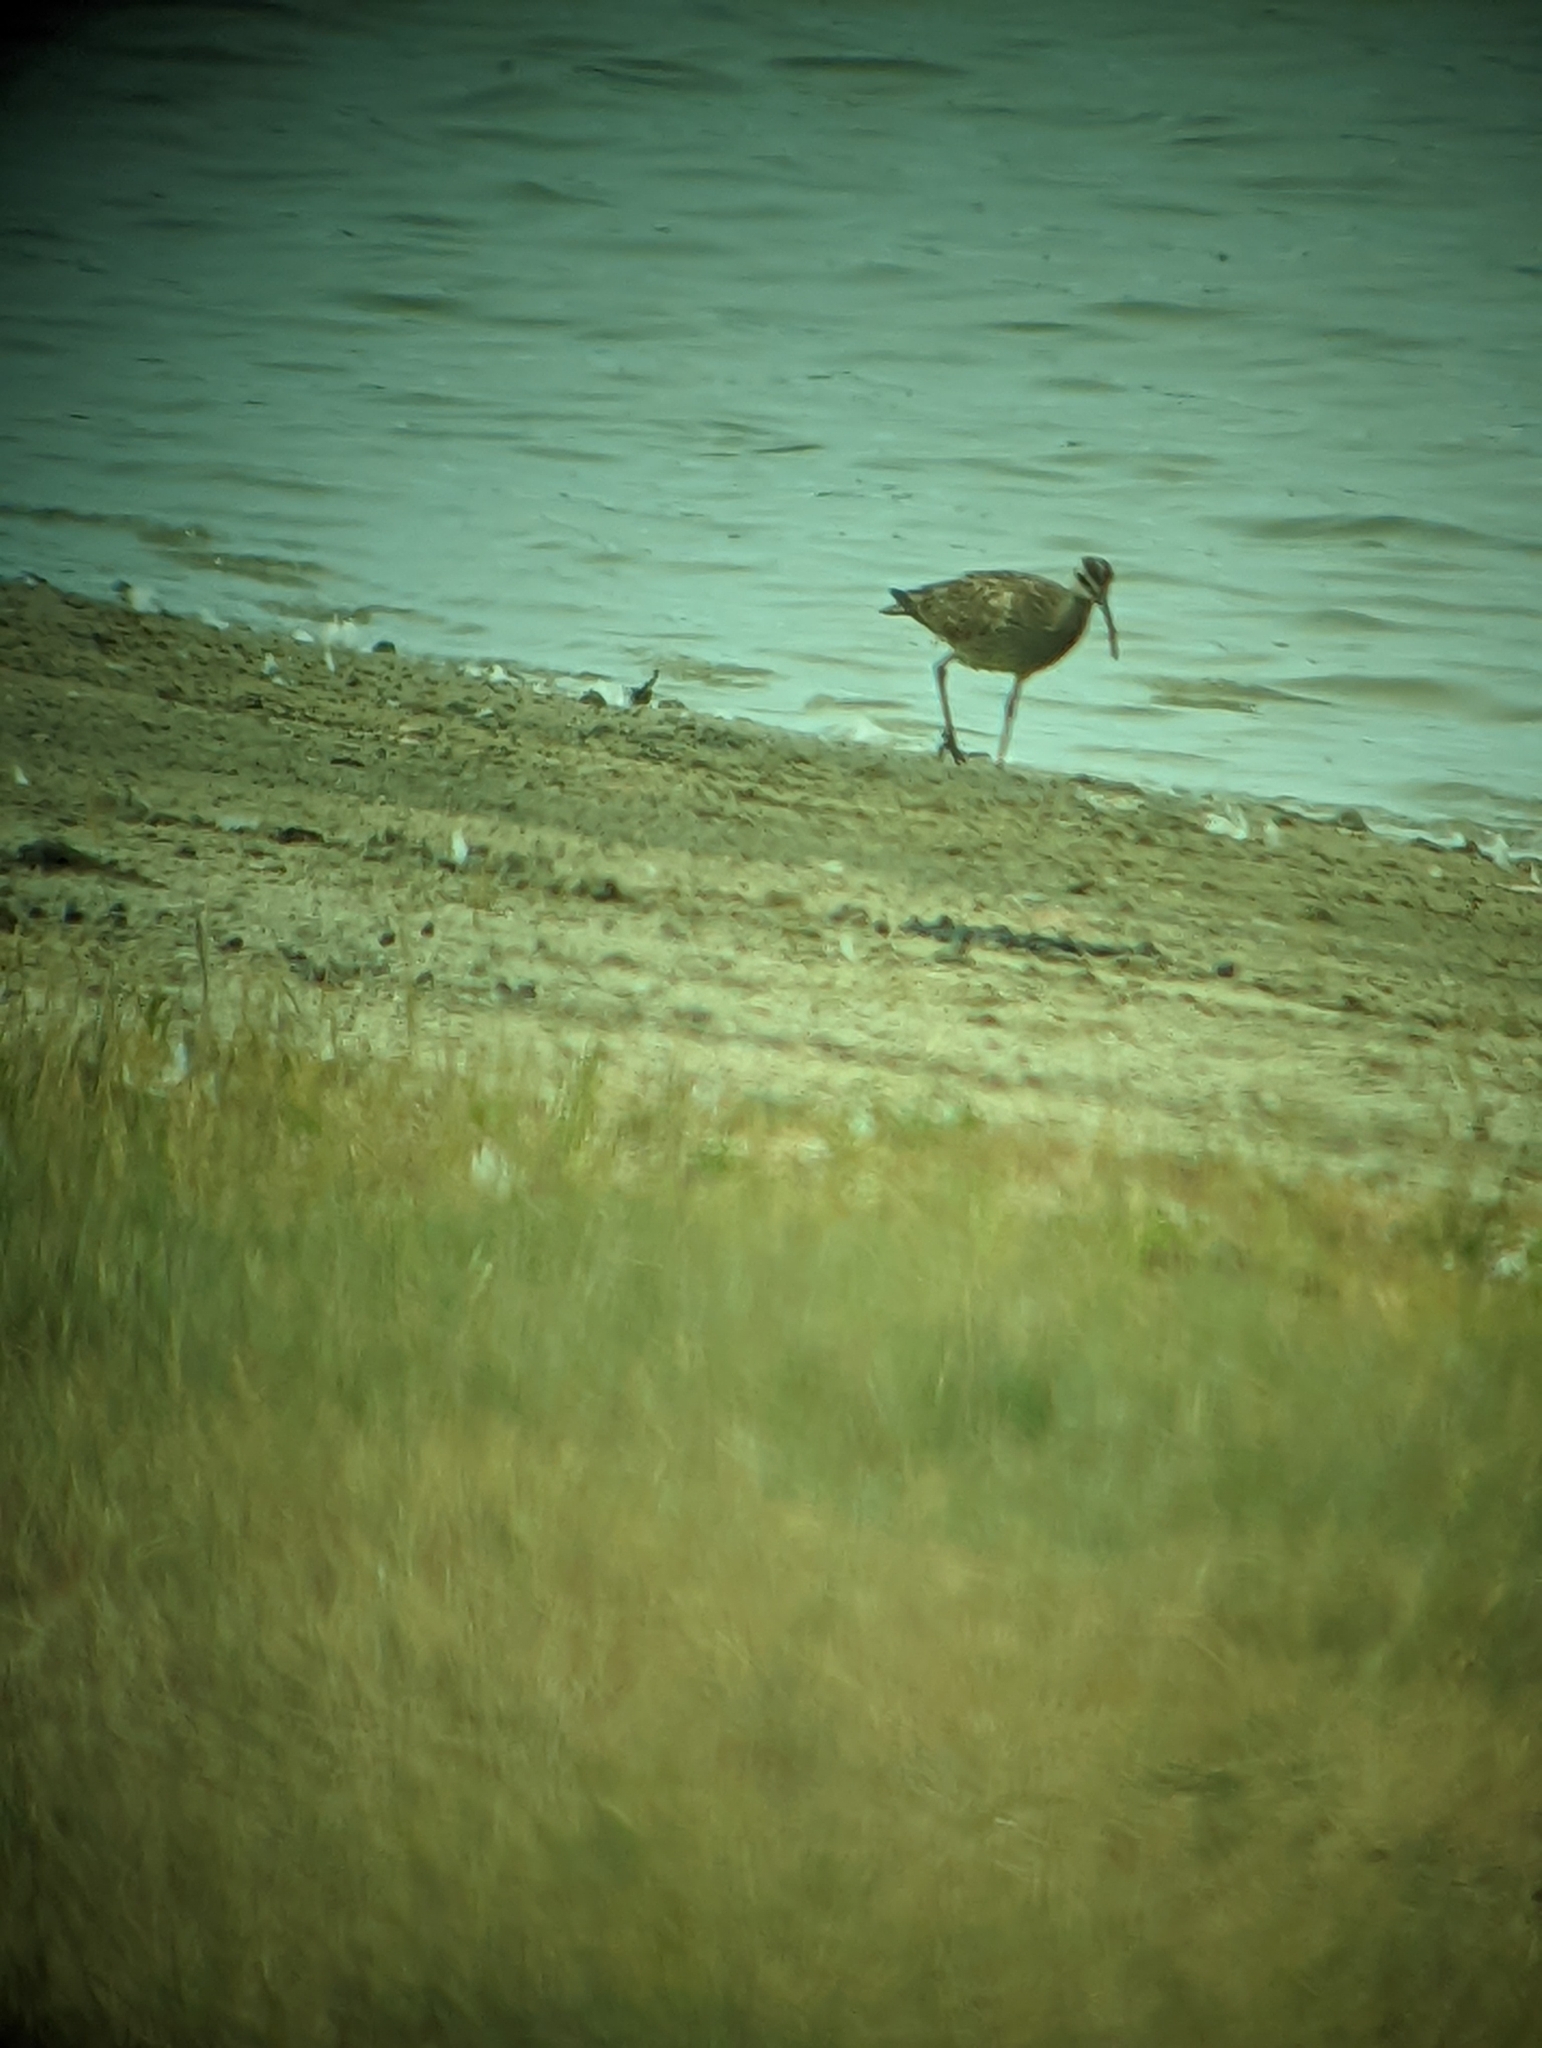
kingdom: Animalia
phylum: Chordata
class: Aves
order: Charadriiformes
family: Scolopacidae
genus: Numenius
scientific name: Numenius phaeopus
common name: Whimbrel
